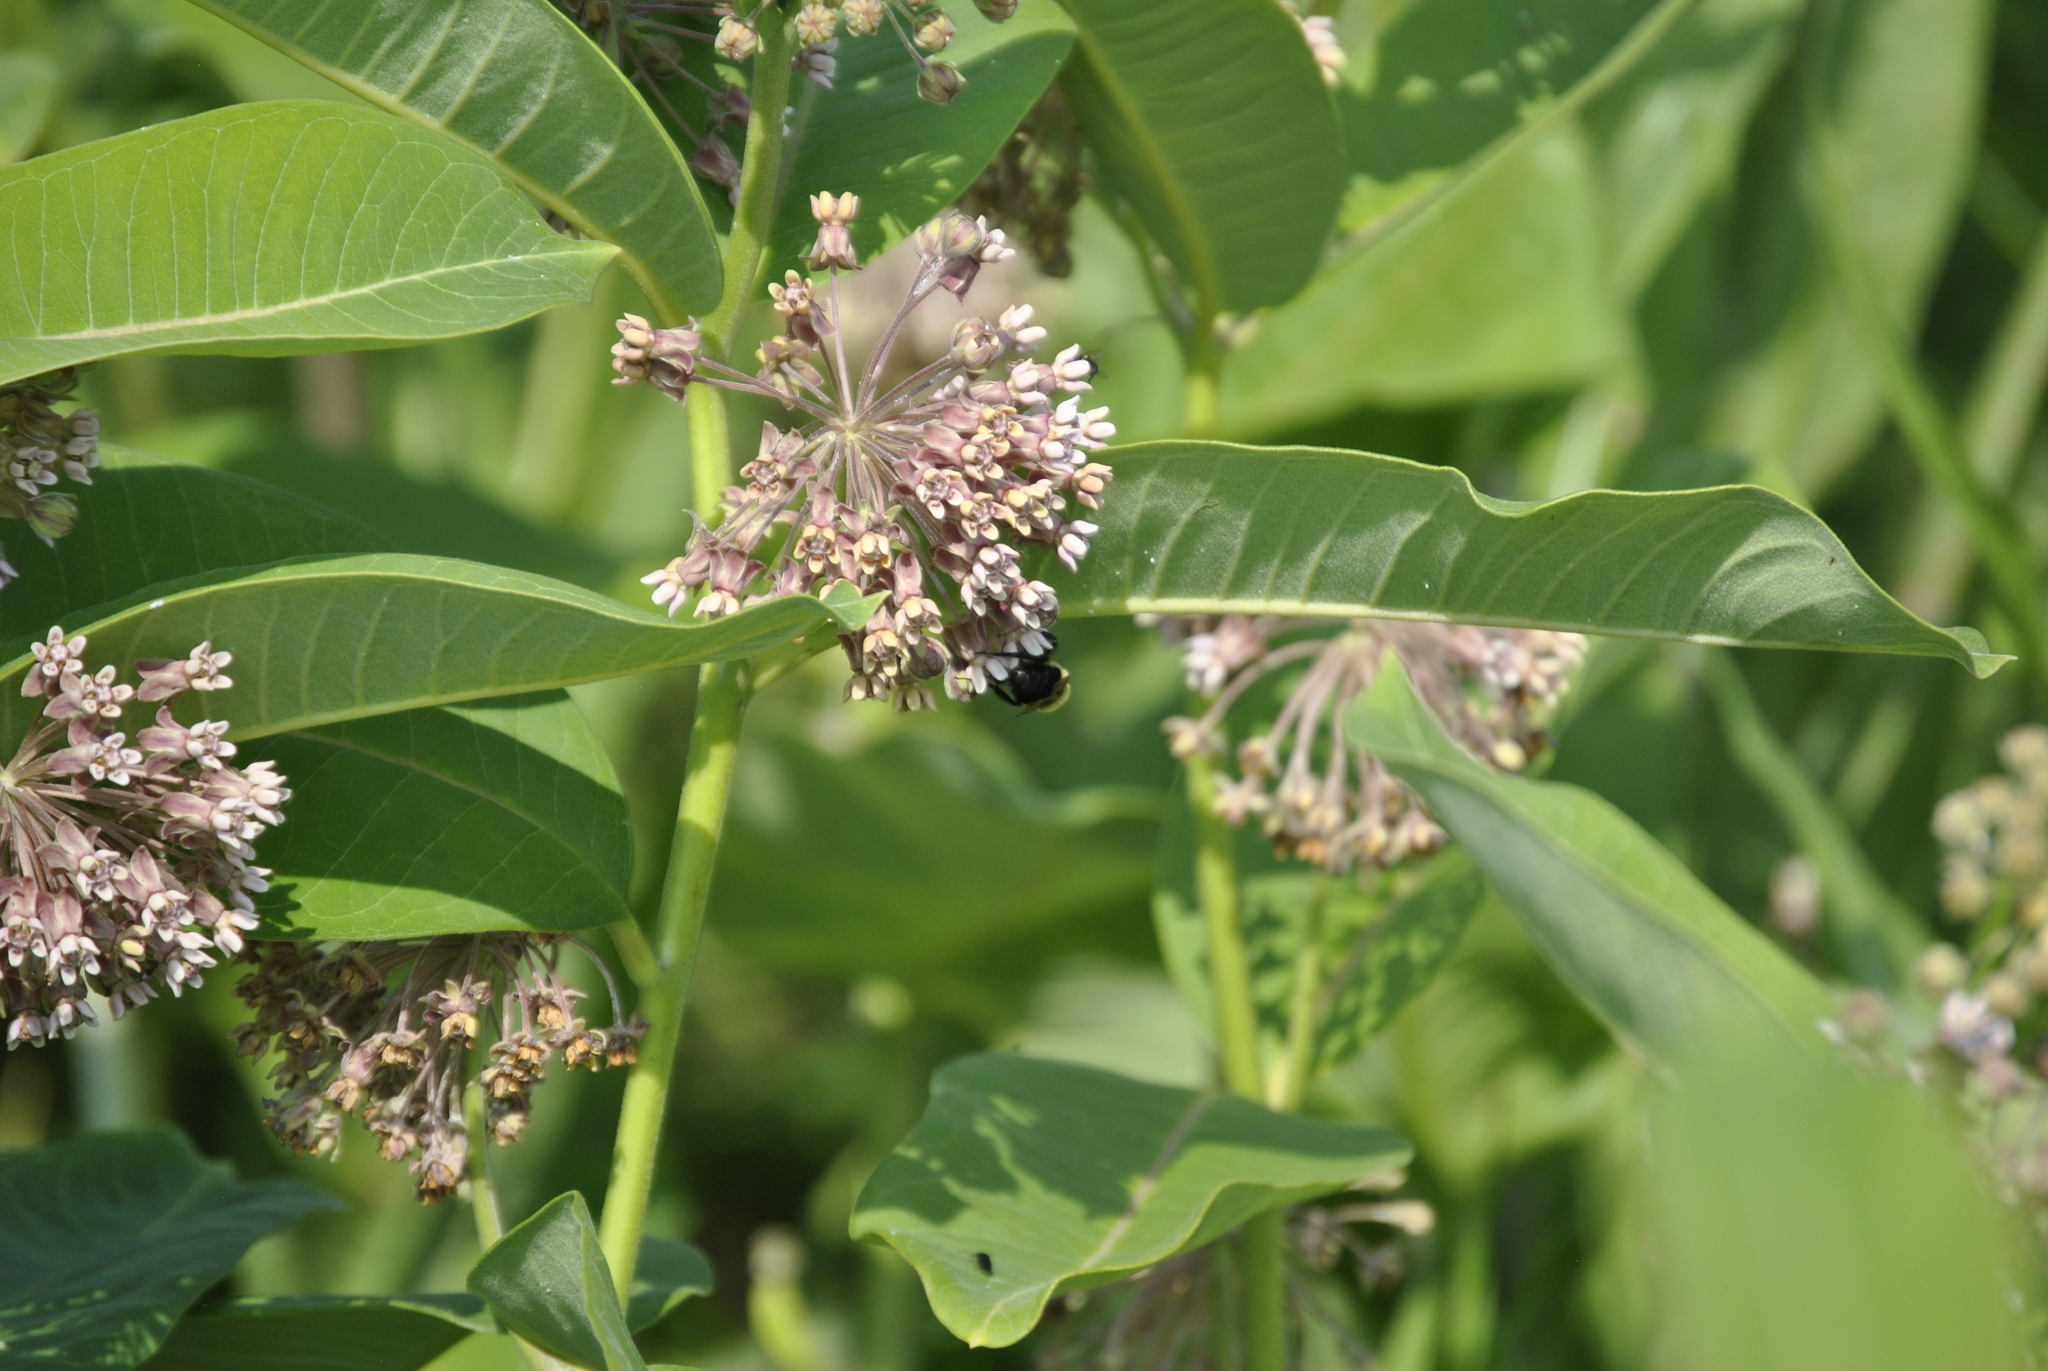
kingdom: Plantae
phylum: Tracheophyta
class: Magnoliopsida
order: Gentianales
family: Apocynaceae
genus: Asclepias
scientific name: Asclepias syriaca
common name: Common milkweed
